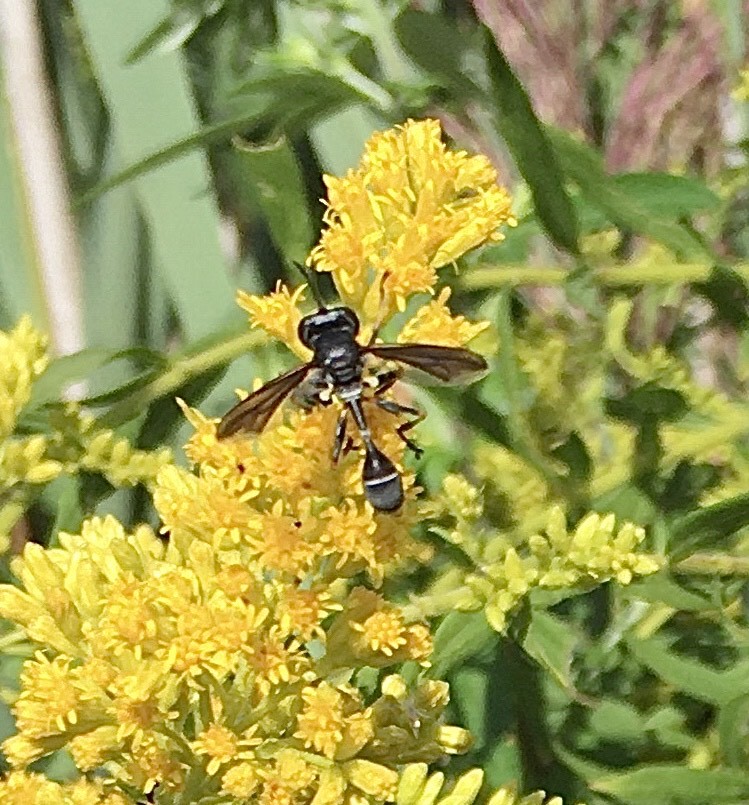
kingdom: Animalia
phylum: Arthropoda
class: Insecta
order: Diptera
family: Conopidae
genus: Physocephala
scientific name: Physocephala tibialis
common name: Common eastern physocephala
